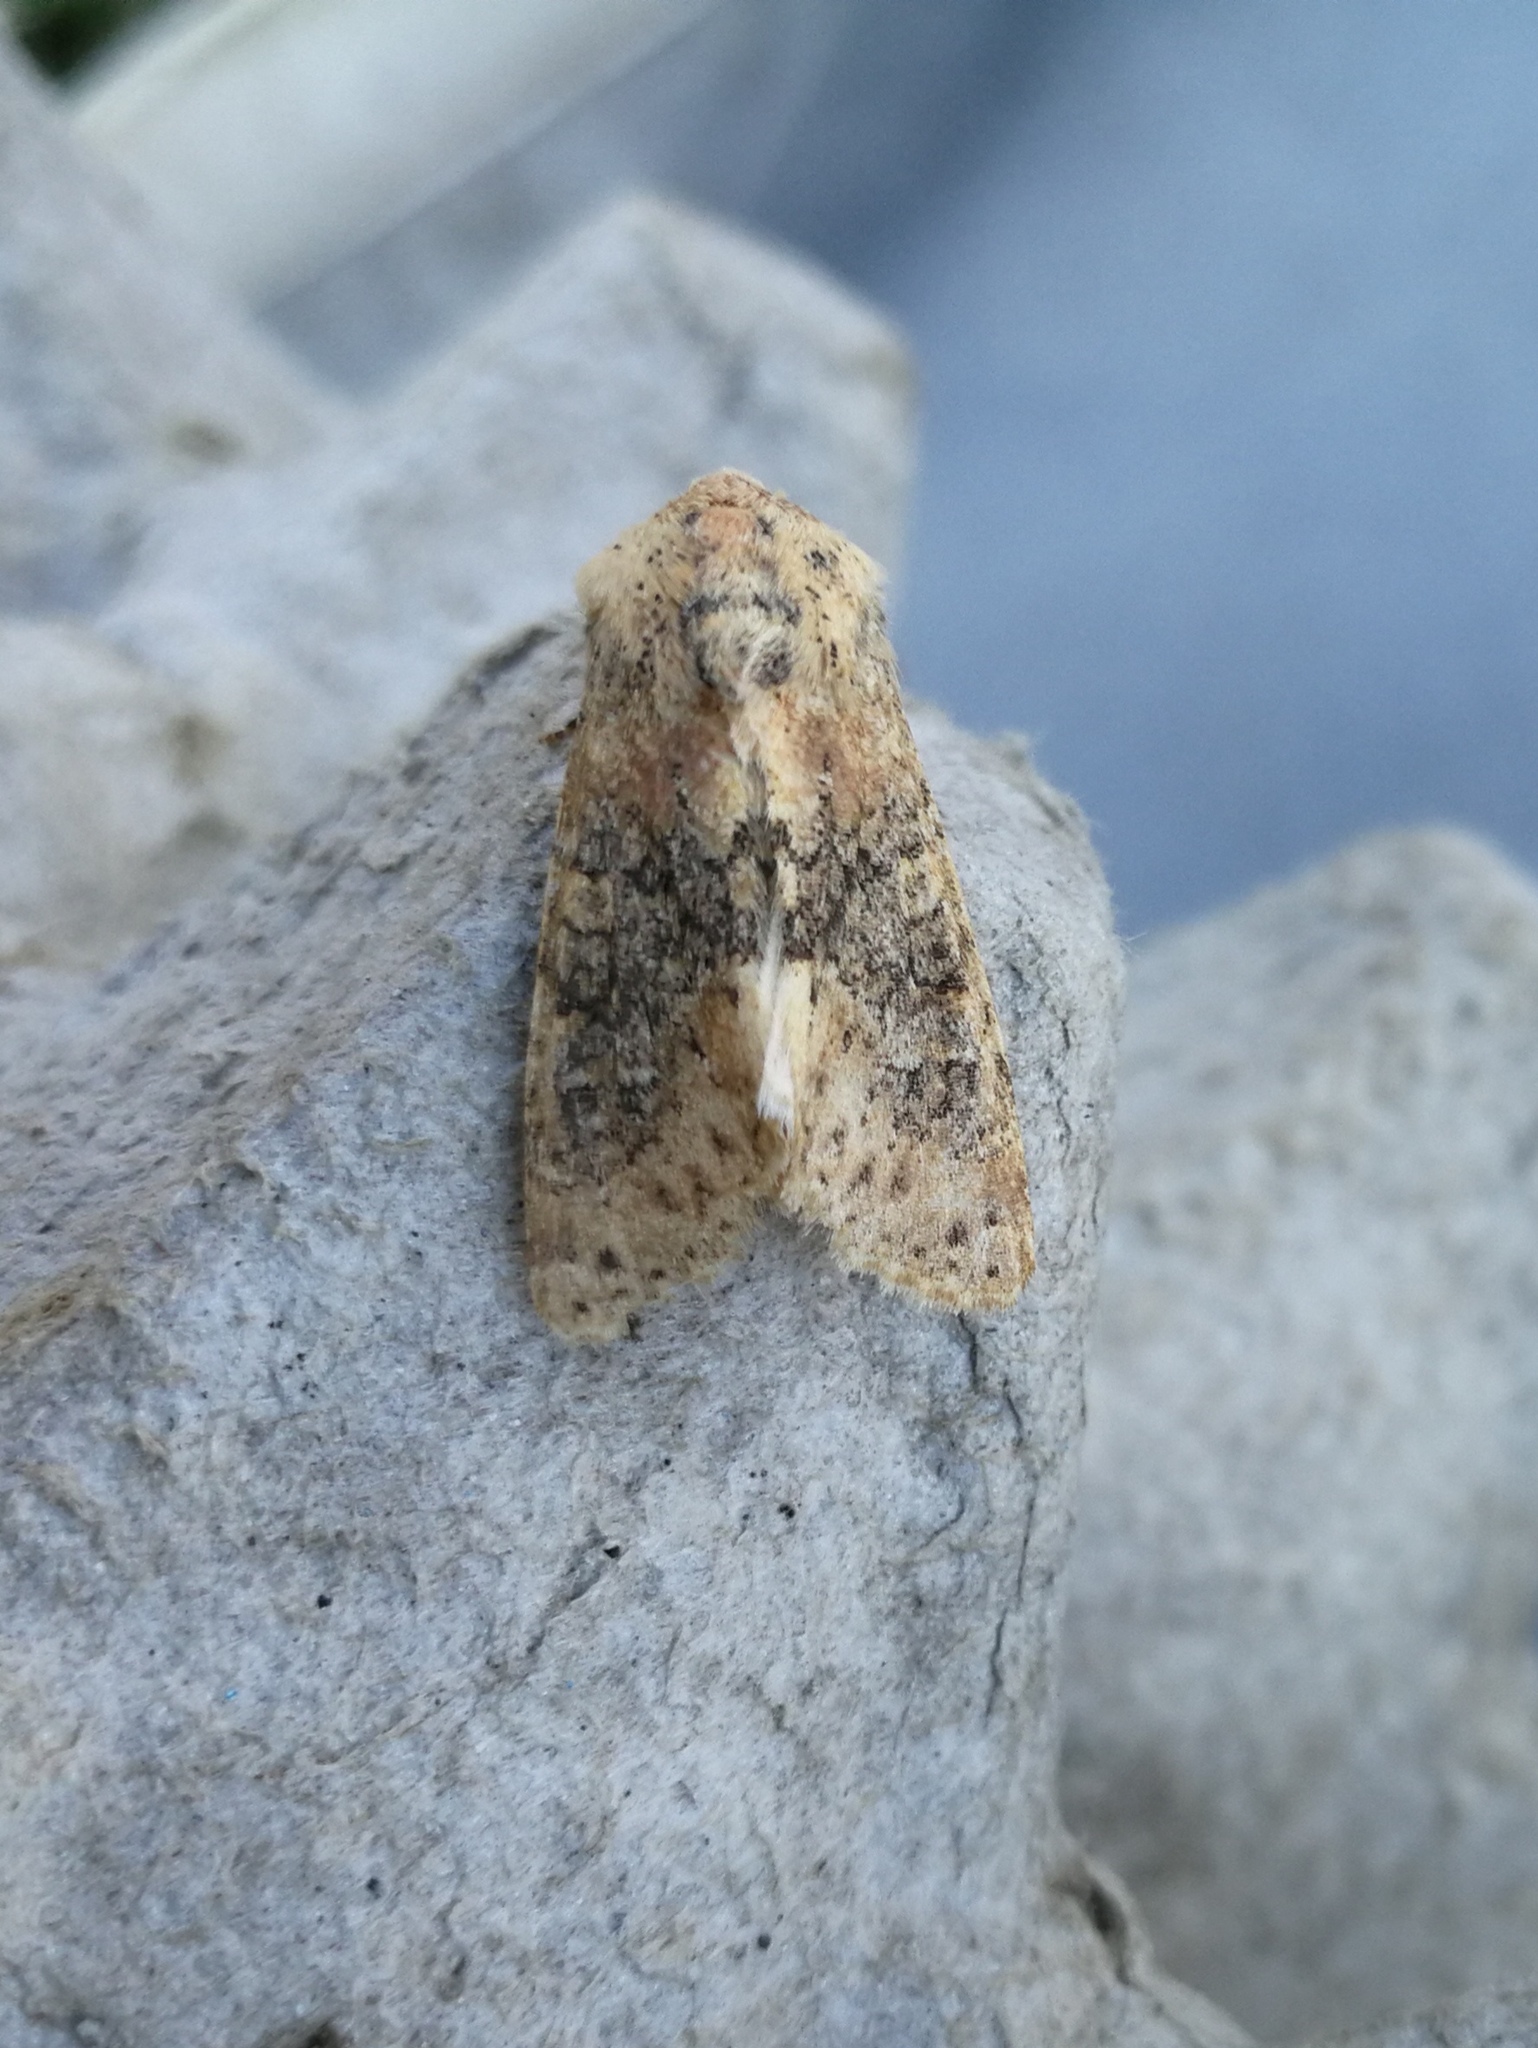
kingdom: Animalia
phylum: Arthropoda
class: Insecta
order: Lepidoptera
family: Noctuidae
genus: Polymixis
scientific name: Polymixis argillaceago
